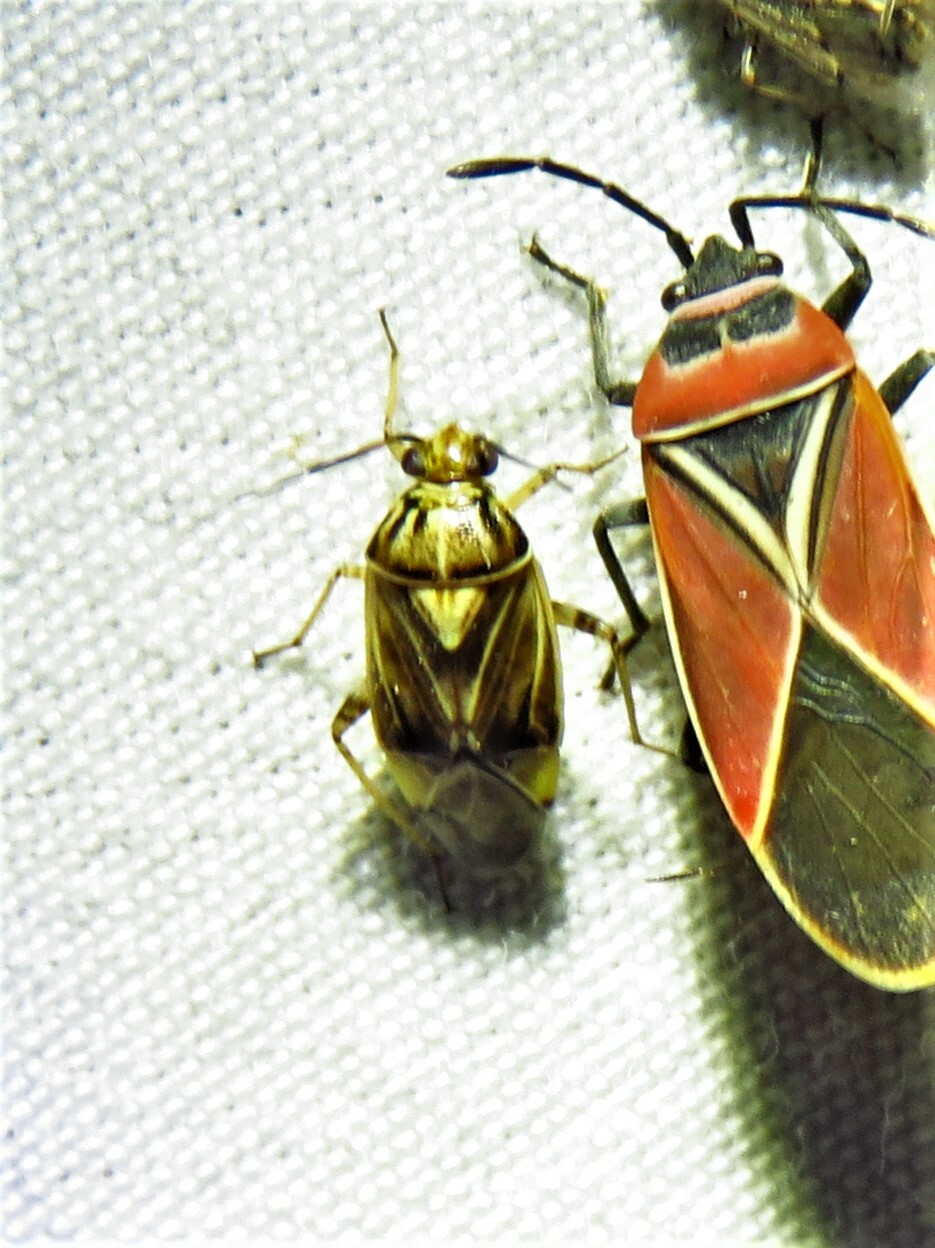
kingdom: Animalia
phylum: Arthropoda
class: Insecta
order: Hemiptera
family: Miridae
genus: Lygus
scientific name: Lygus lineolaris
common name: North american tarnished plant bug
